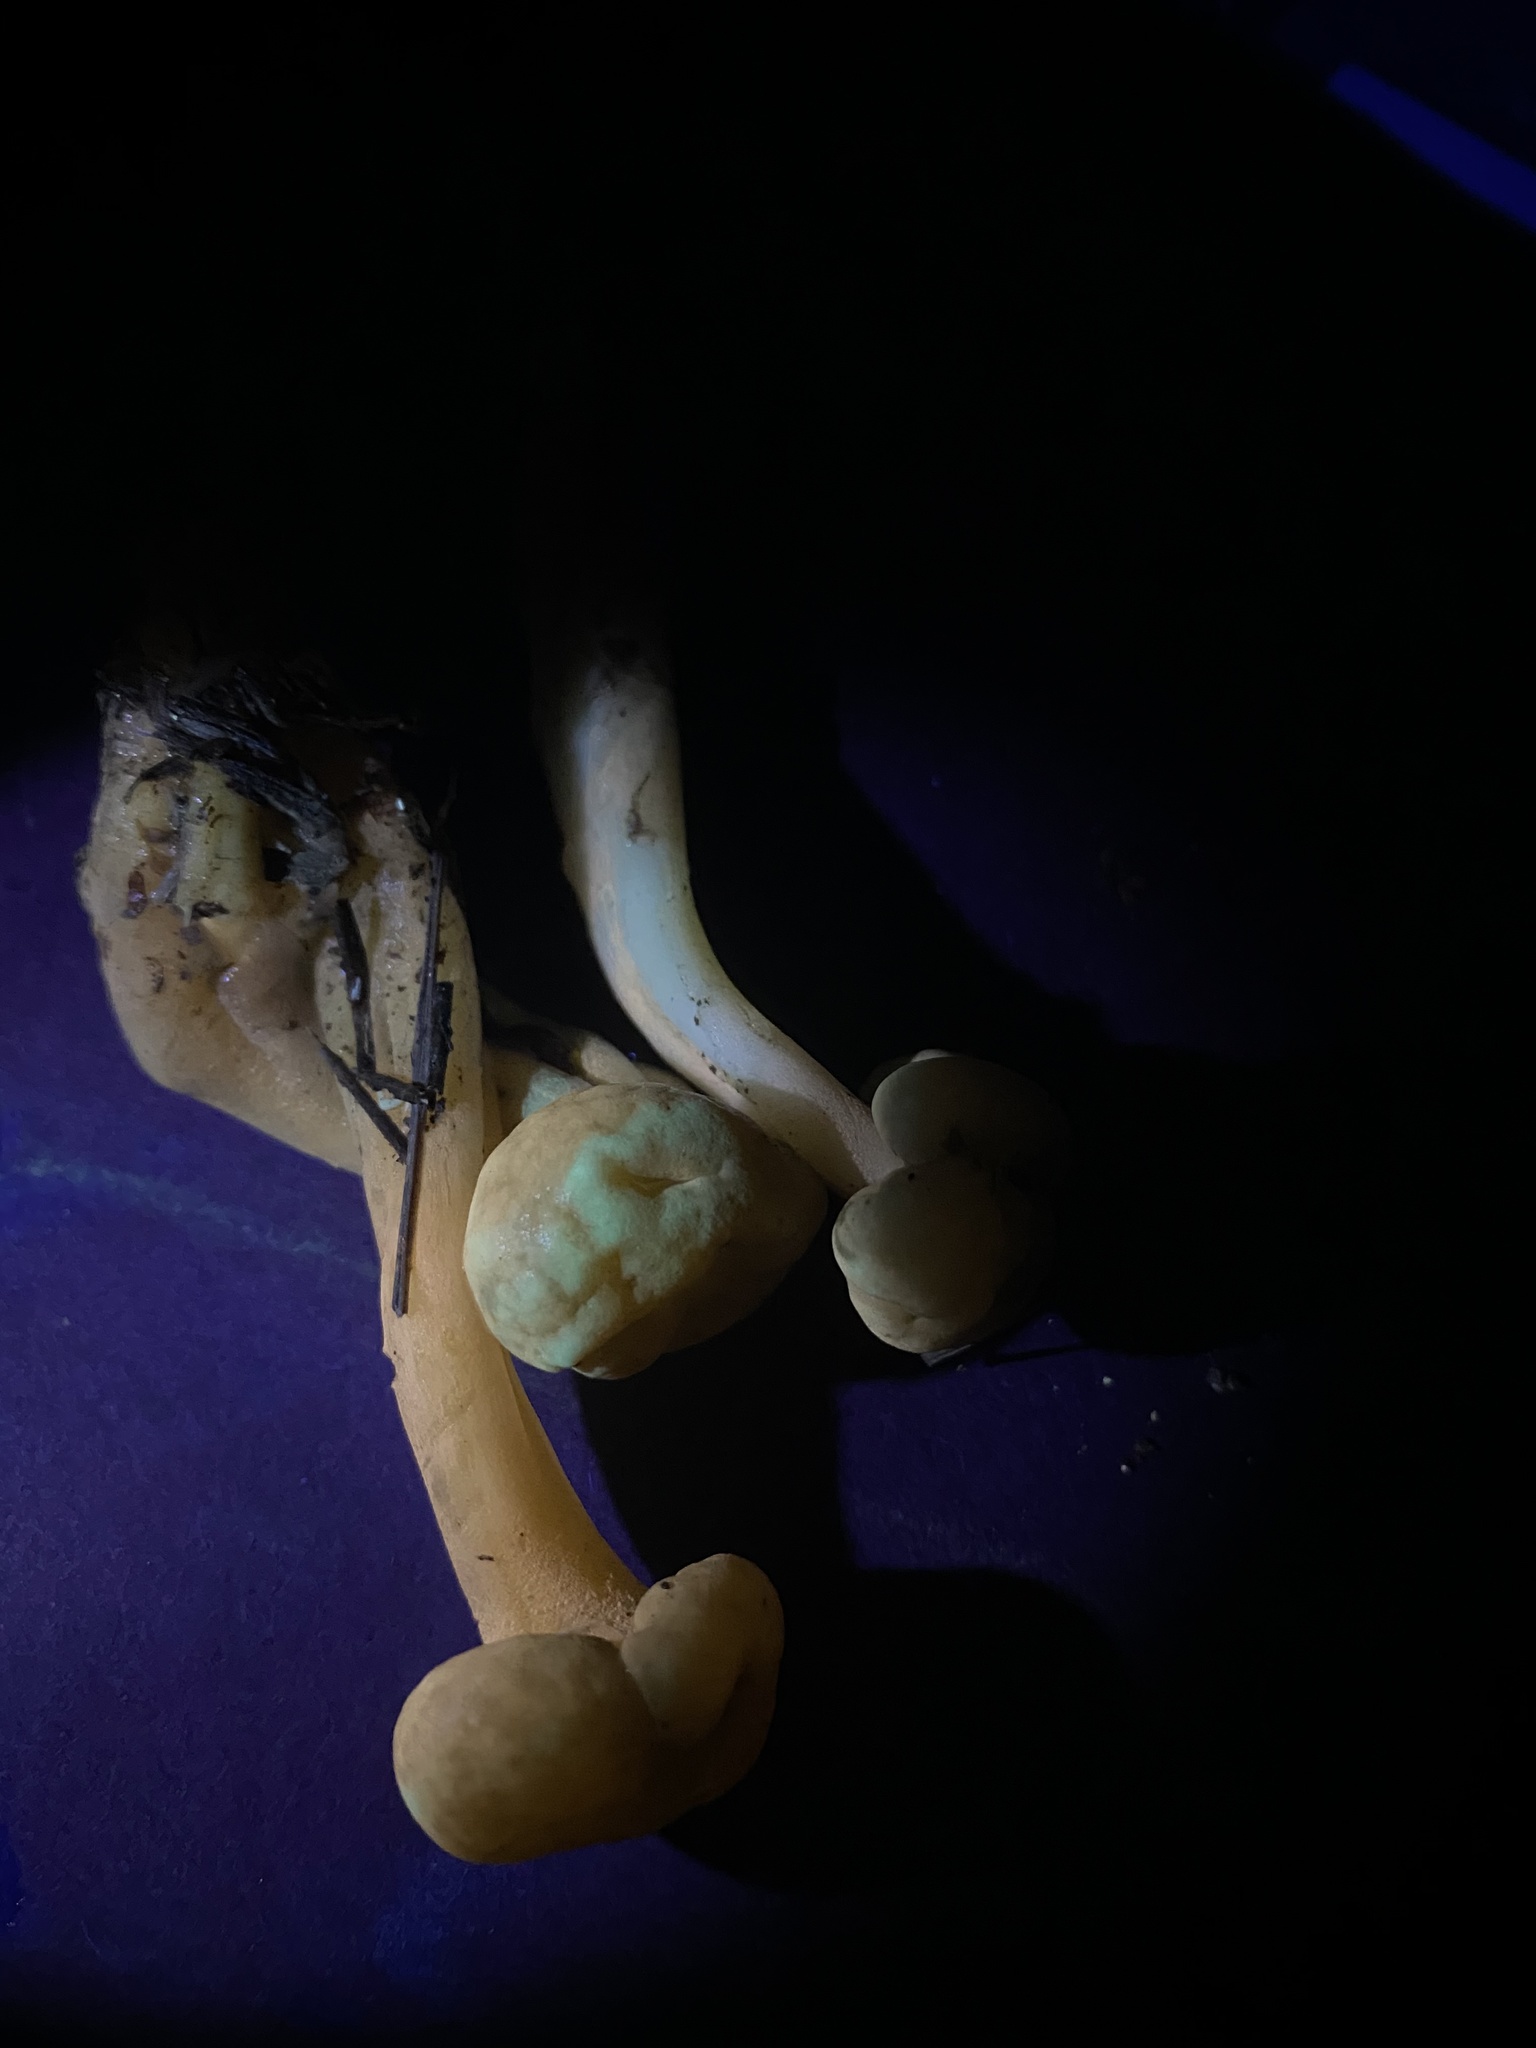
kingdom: Fungi
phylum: Ascomycota
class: Leotiomycetes
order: Leotiales
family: Leotiaceae
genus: Leotia
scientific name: Leotia lubrica
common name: Jellybaby
